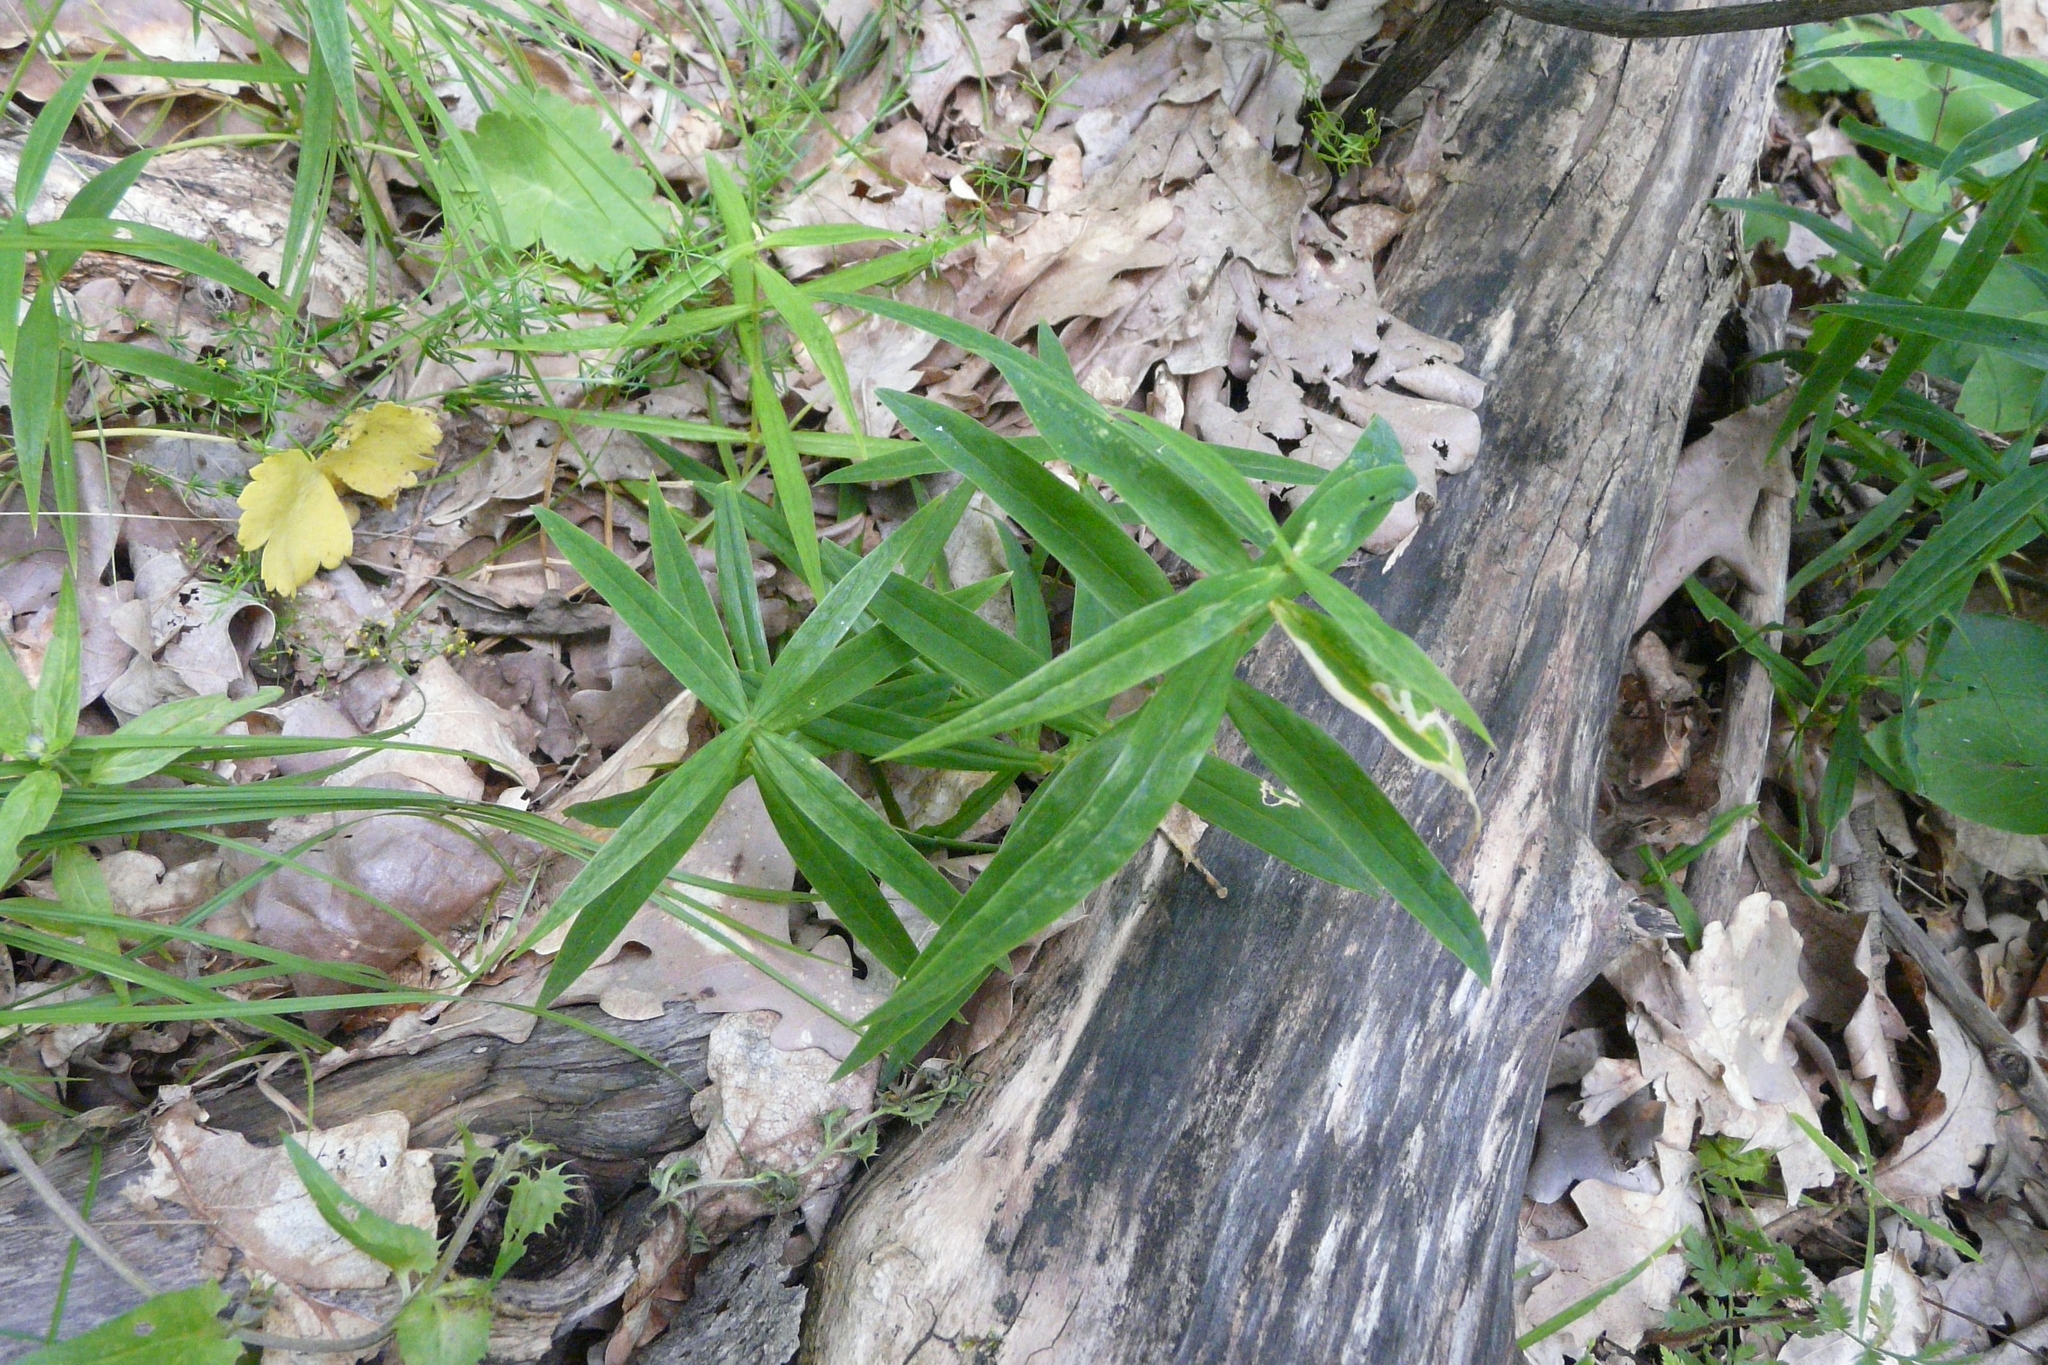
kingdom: Plantae
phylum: Tracheophyta
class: Magnoliopsida
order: Caryophyllales
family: Caryophyllaceae
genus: Rabelera
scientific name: Rabelera holostea
